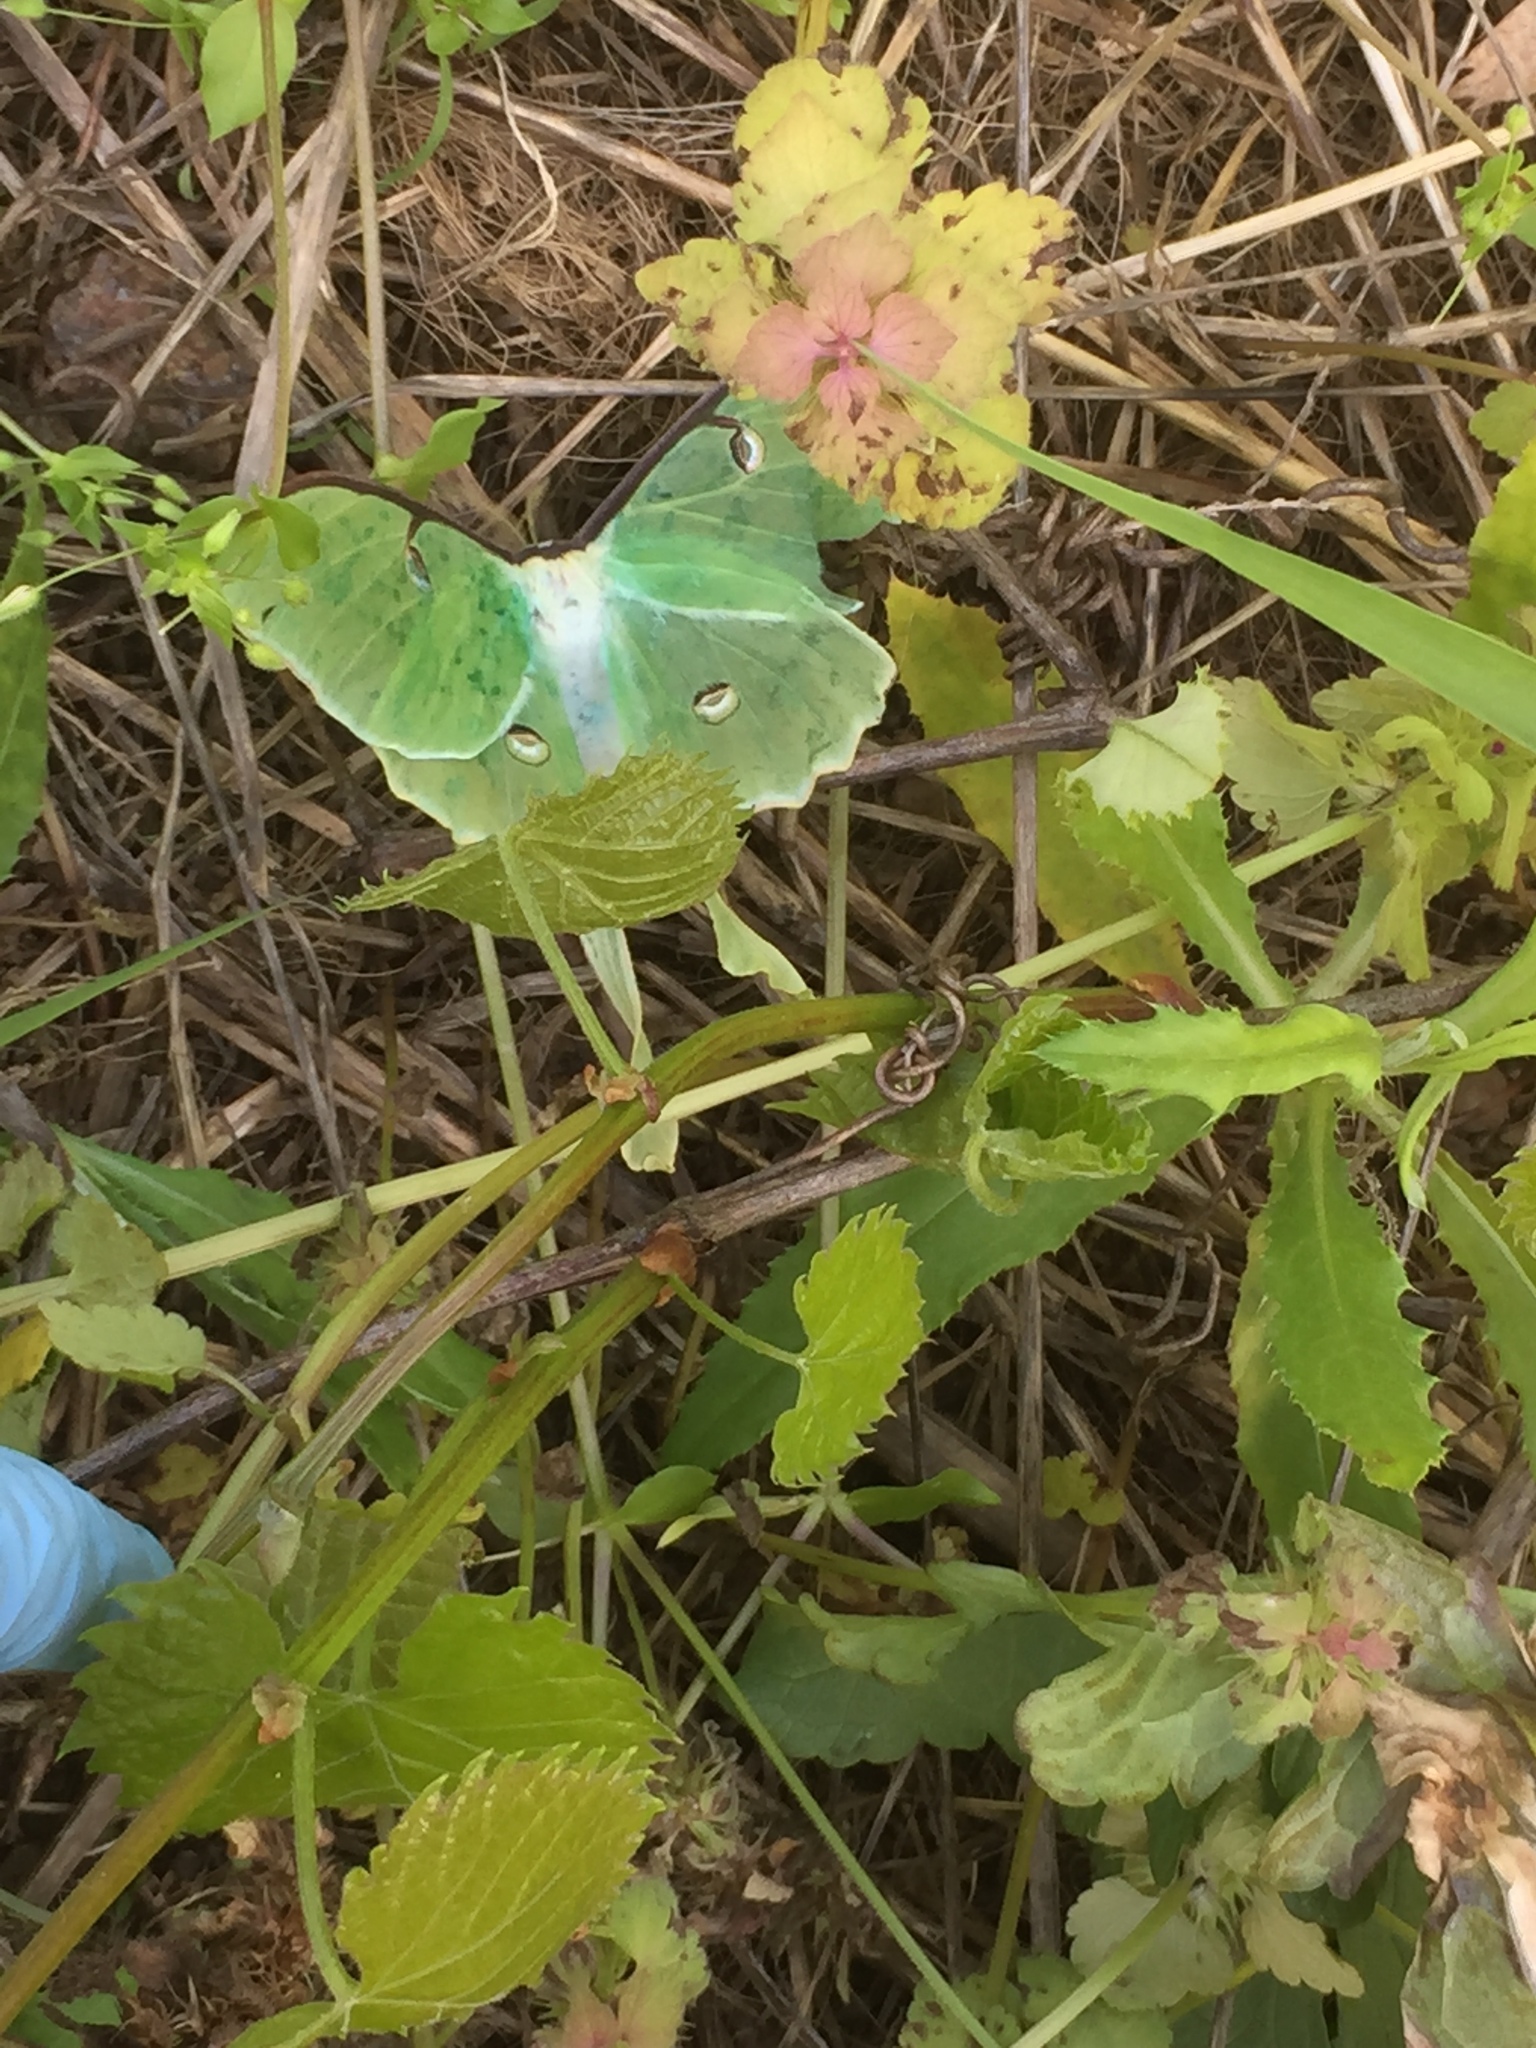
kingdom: Animalia
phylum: Arthropoda
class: Insecta
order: Lepidoptera
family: Saturniidae
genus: Actias
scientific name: Actias luna
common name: Luna moth
